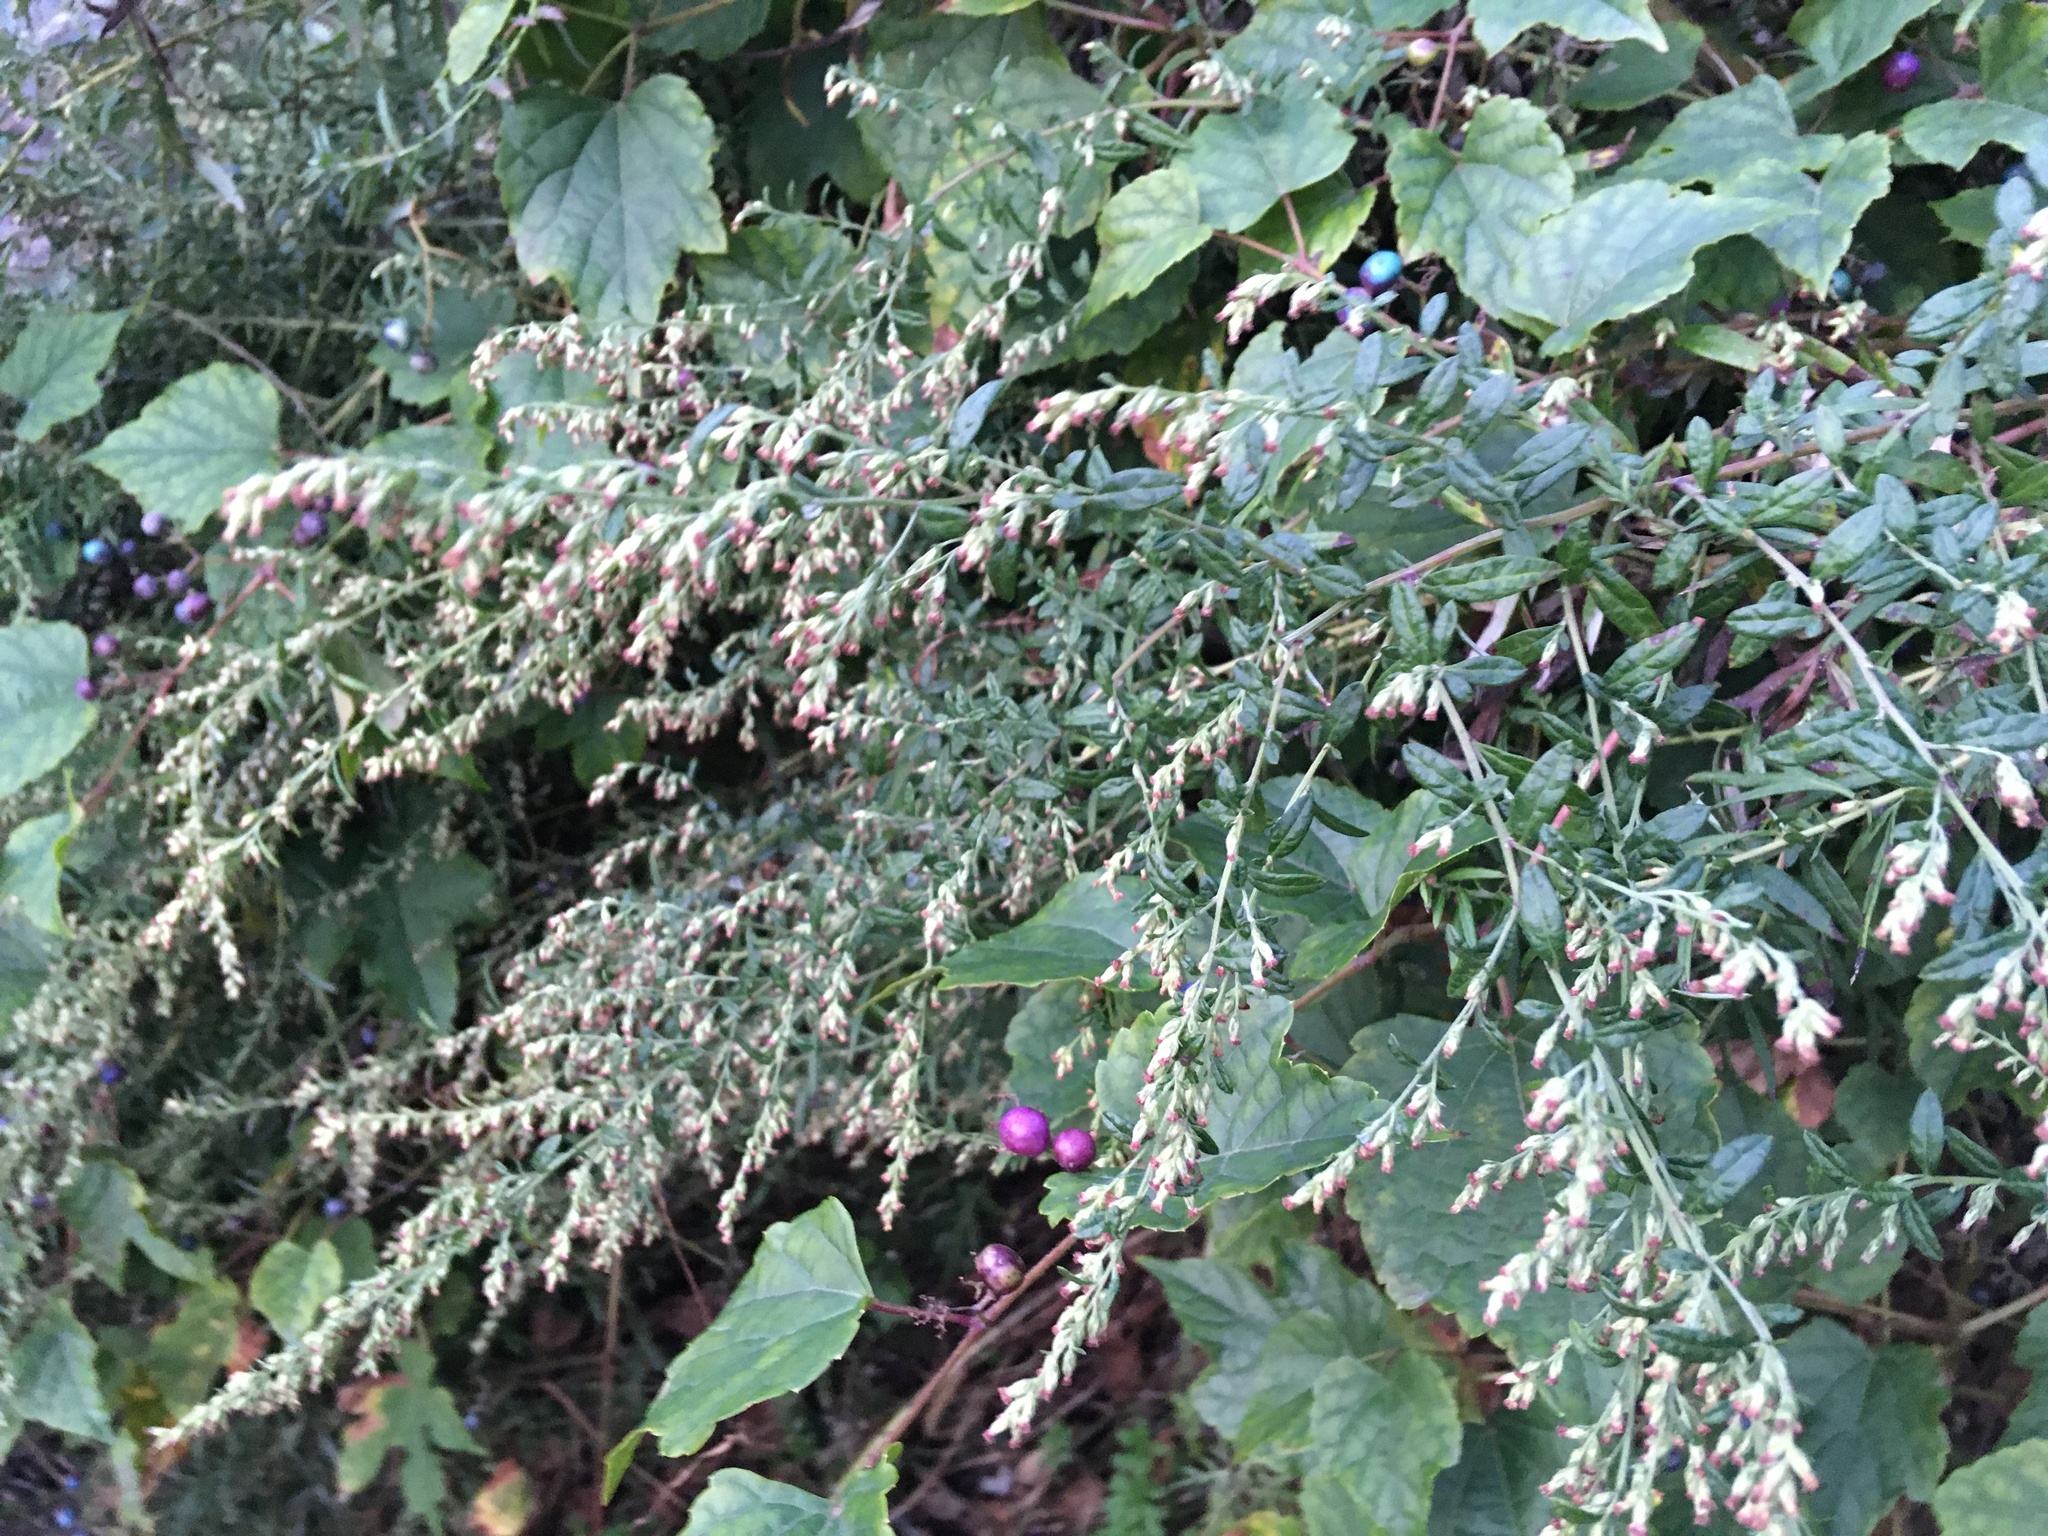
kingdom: Plantae
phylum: Tracheophyta
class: Magnoliopsida
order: Asterales
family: Asteraceae
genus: Artemisia
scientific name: Artemisia vulgaris
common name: Mugwort
